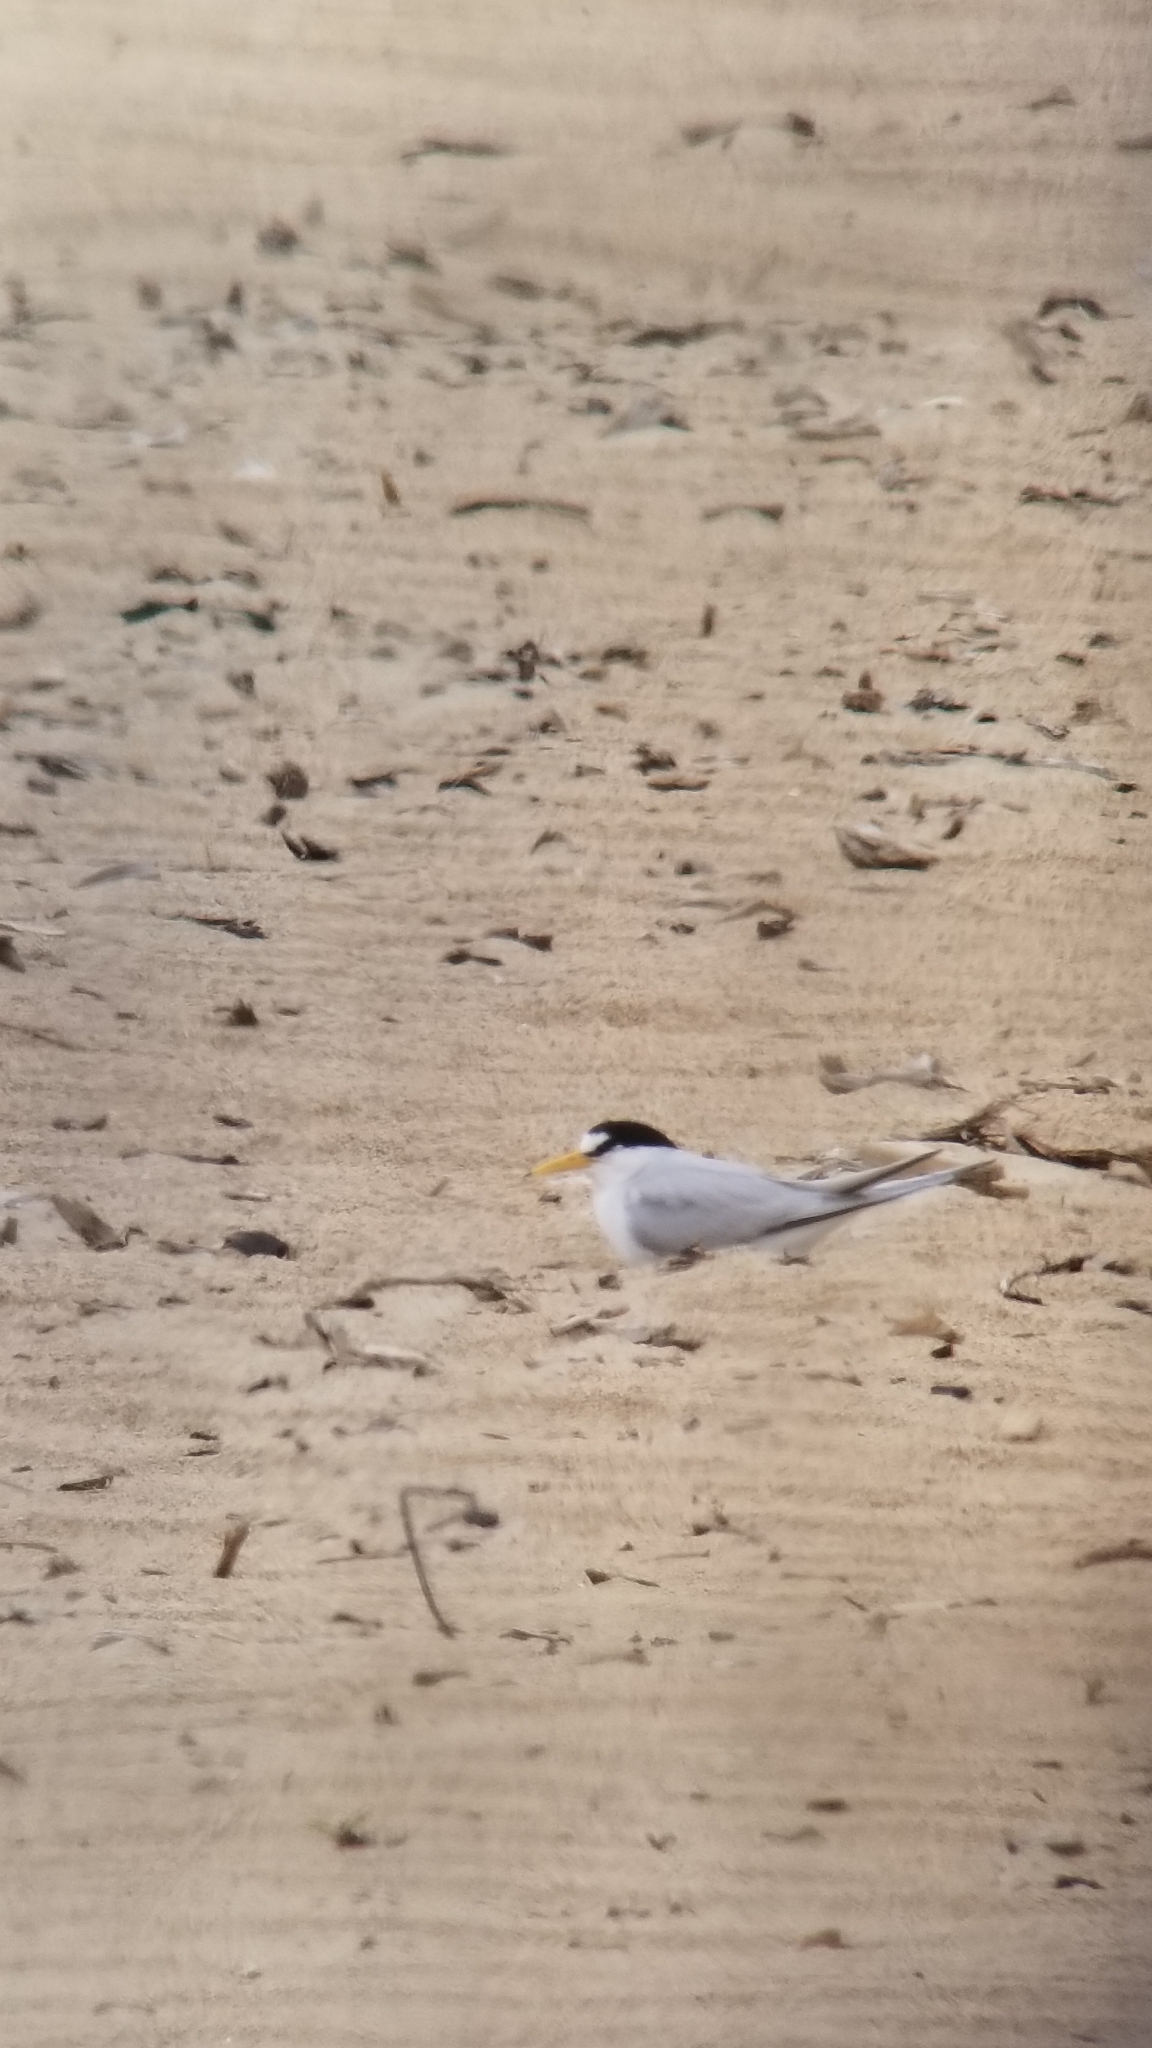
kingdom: Animalia
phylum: Chordata
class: Aves
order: Charadriiformes
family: Laridae
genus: Sternula
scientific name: Sternula antillarum
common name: Least tern
